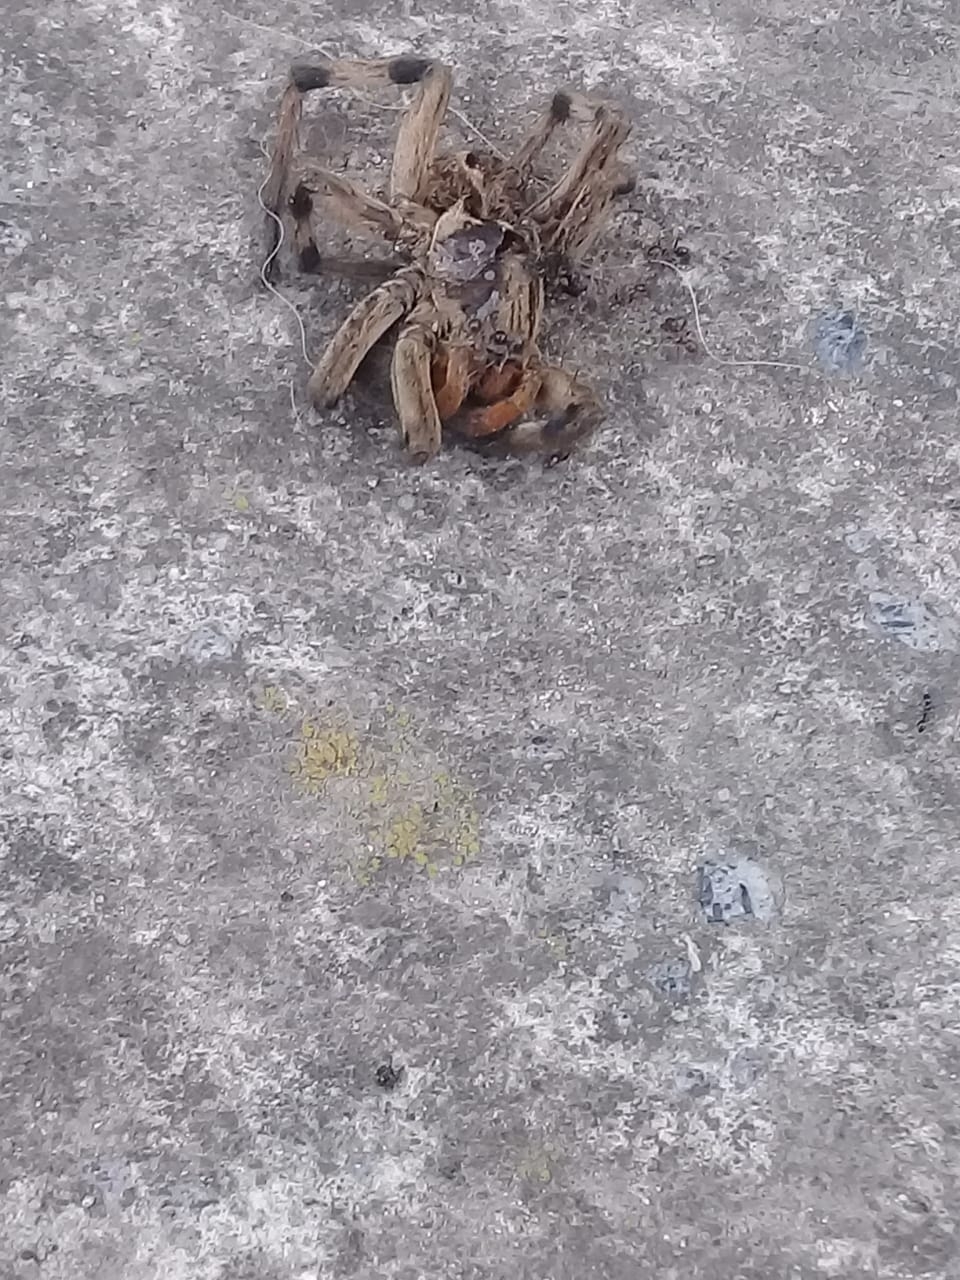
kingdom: Animalia
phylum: Arthropoda
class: Arachnida
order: Araneae
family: Lycosidae
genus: Lycosa
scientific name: Lycosa erythrognatha
